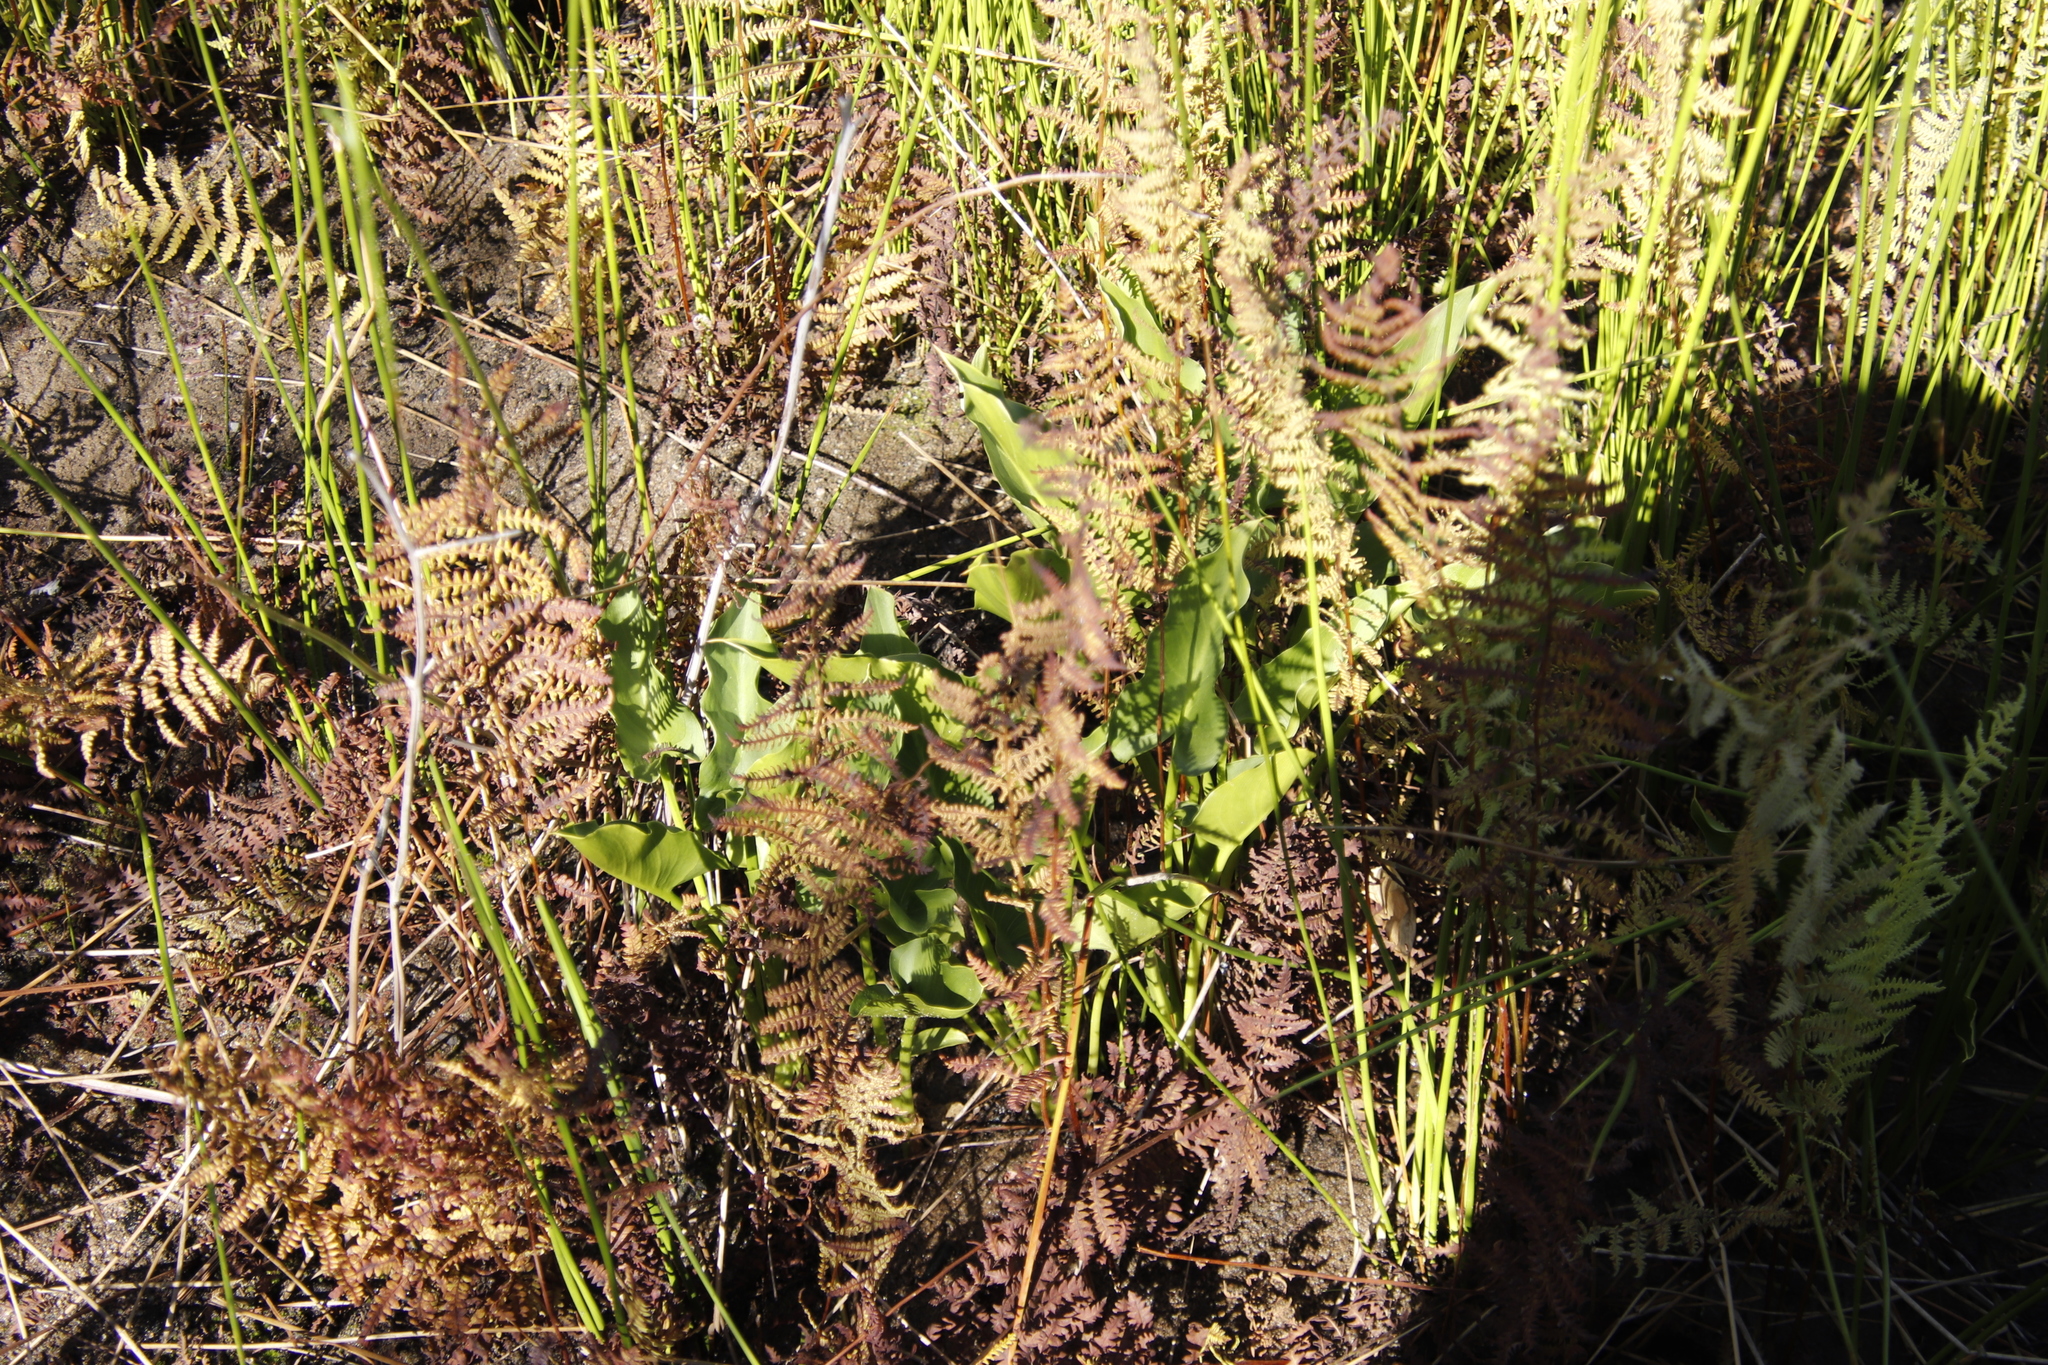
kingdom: Plantae
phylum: Tracheophyta
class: Liliopsida
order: Alismatales
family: Araceae
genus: Zantedeschia
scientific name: Zantedeschia aethiopica
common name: Altar-lily
